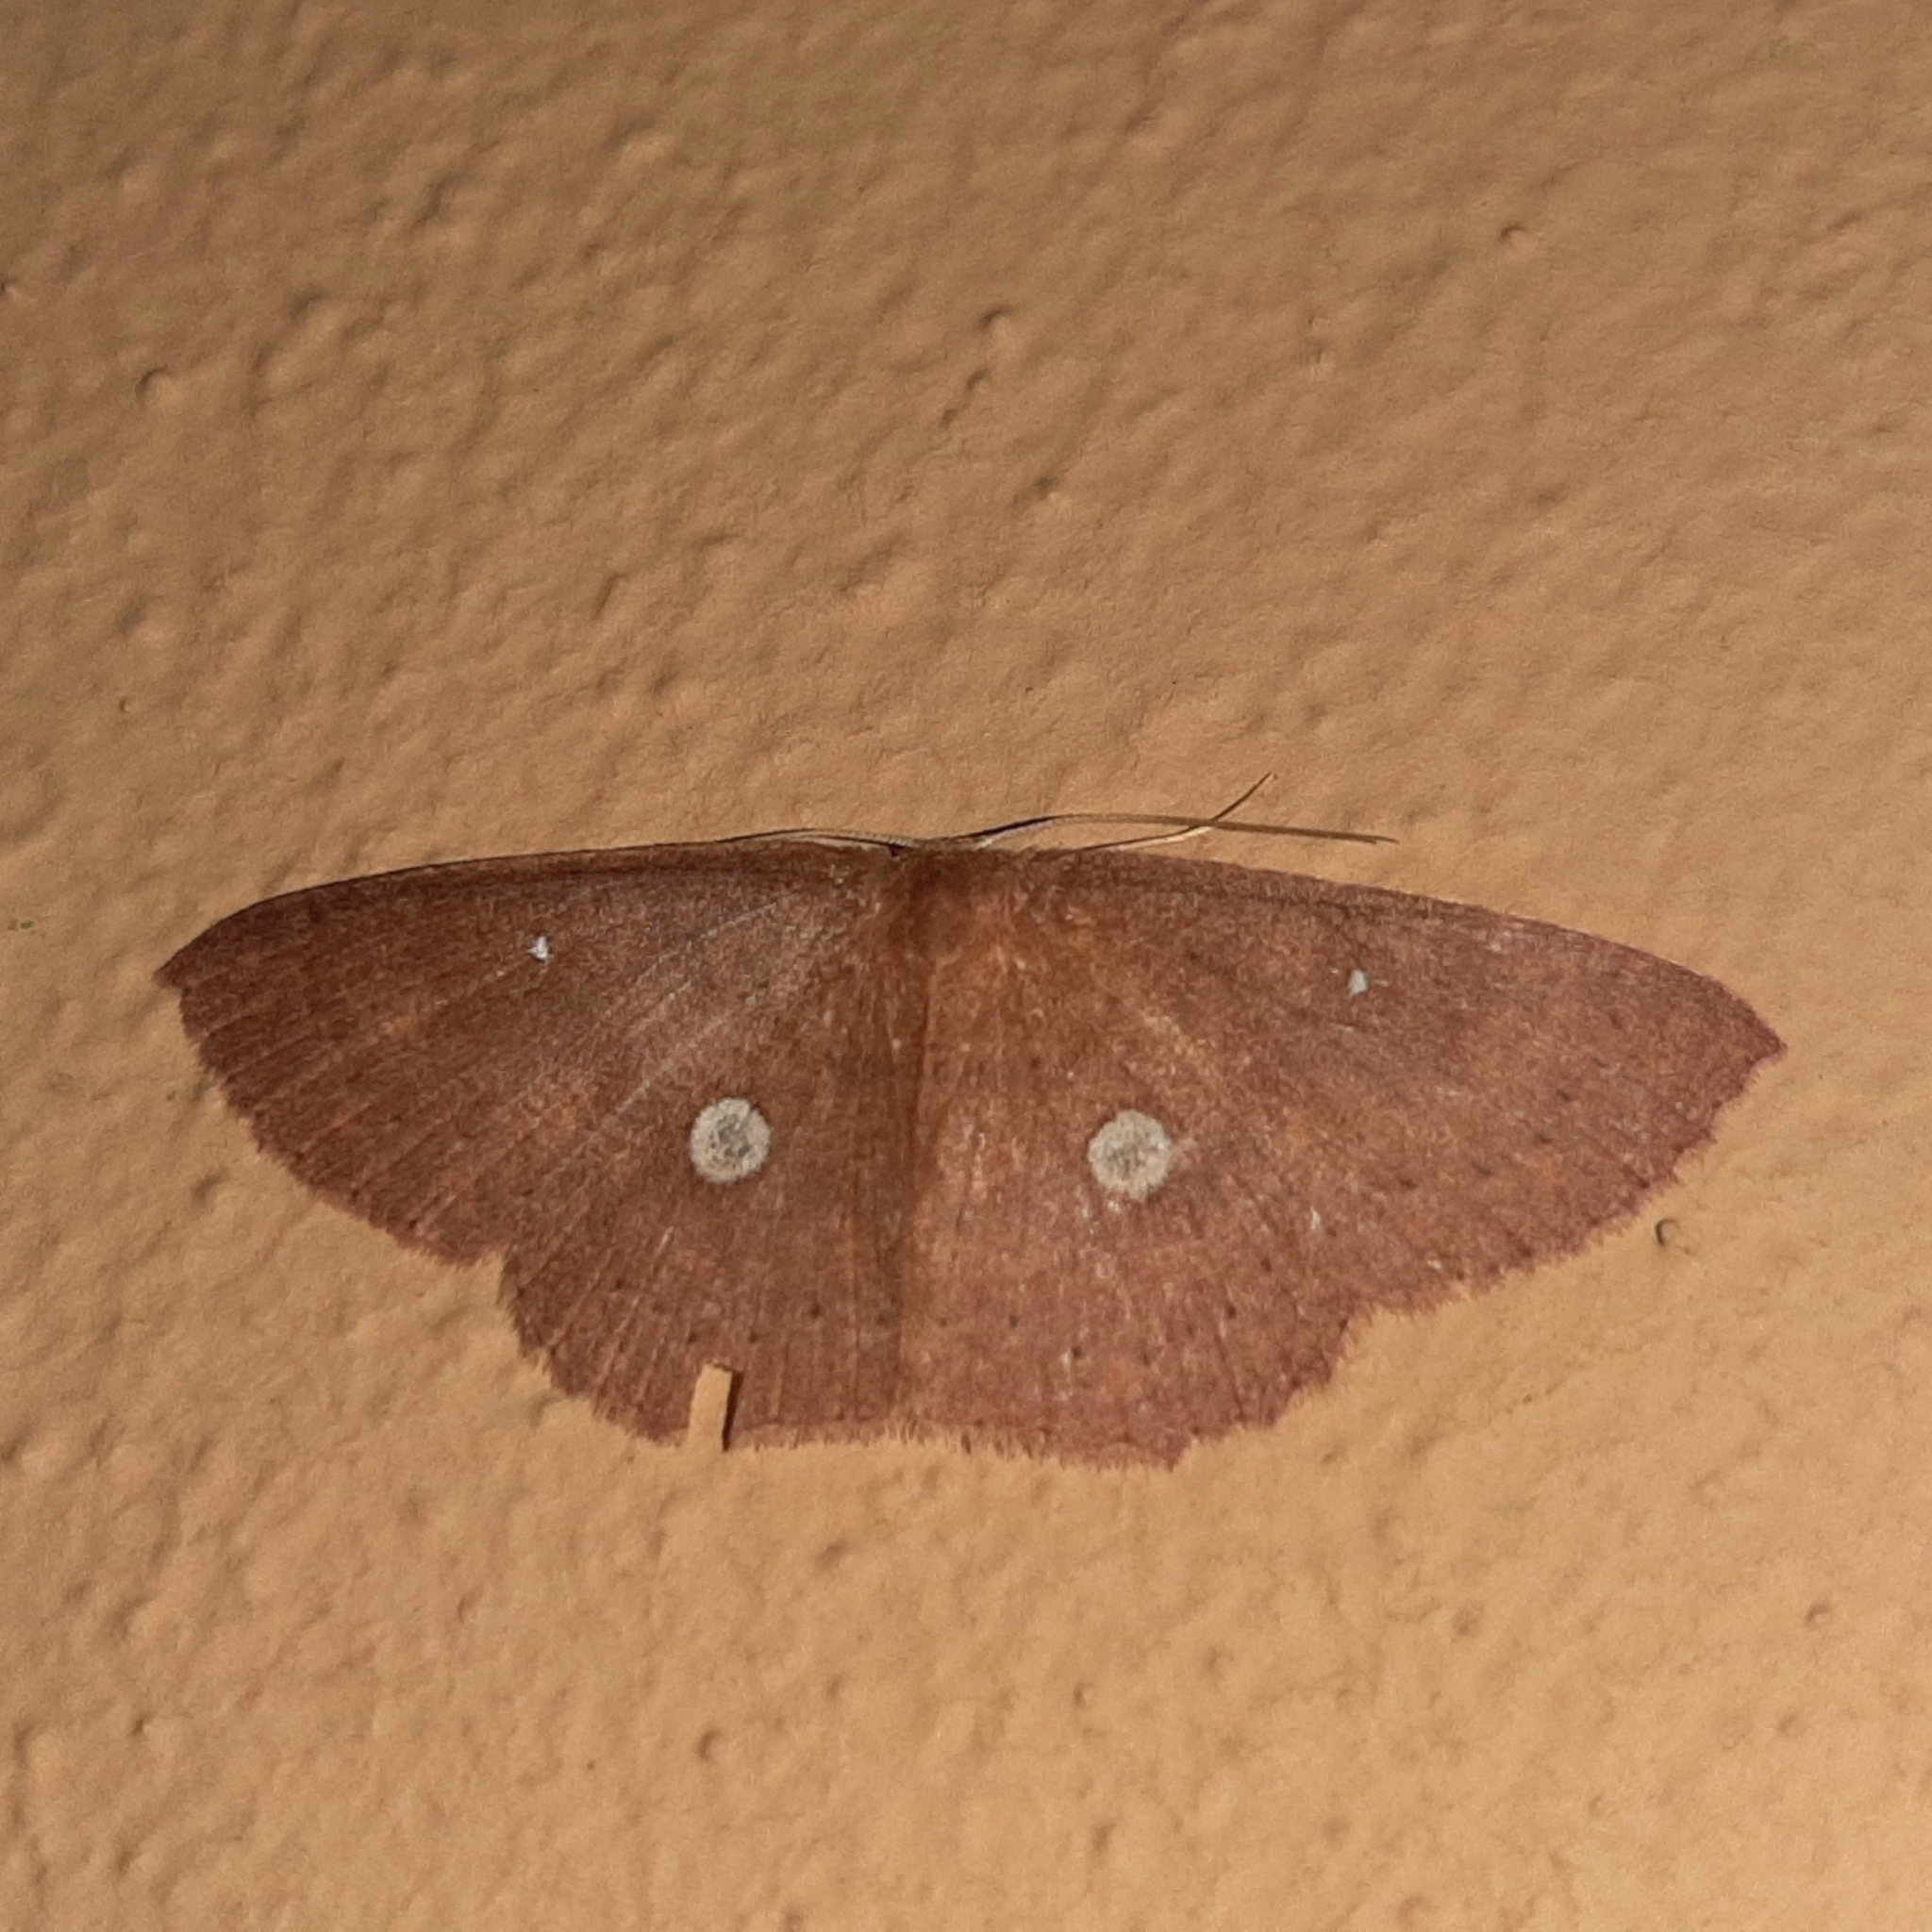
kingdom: Animalia
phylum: Arthropoda
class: Insecta
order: Lepidoptera
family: Geometridae
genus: Cyclophora
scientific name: Cyclophora
